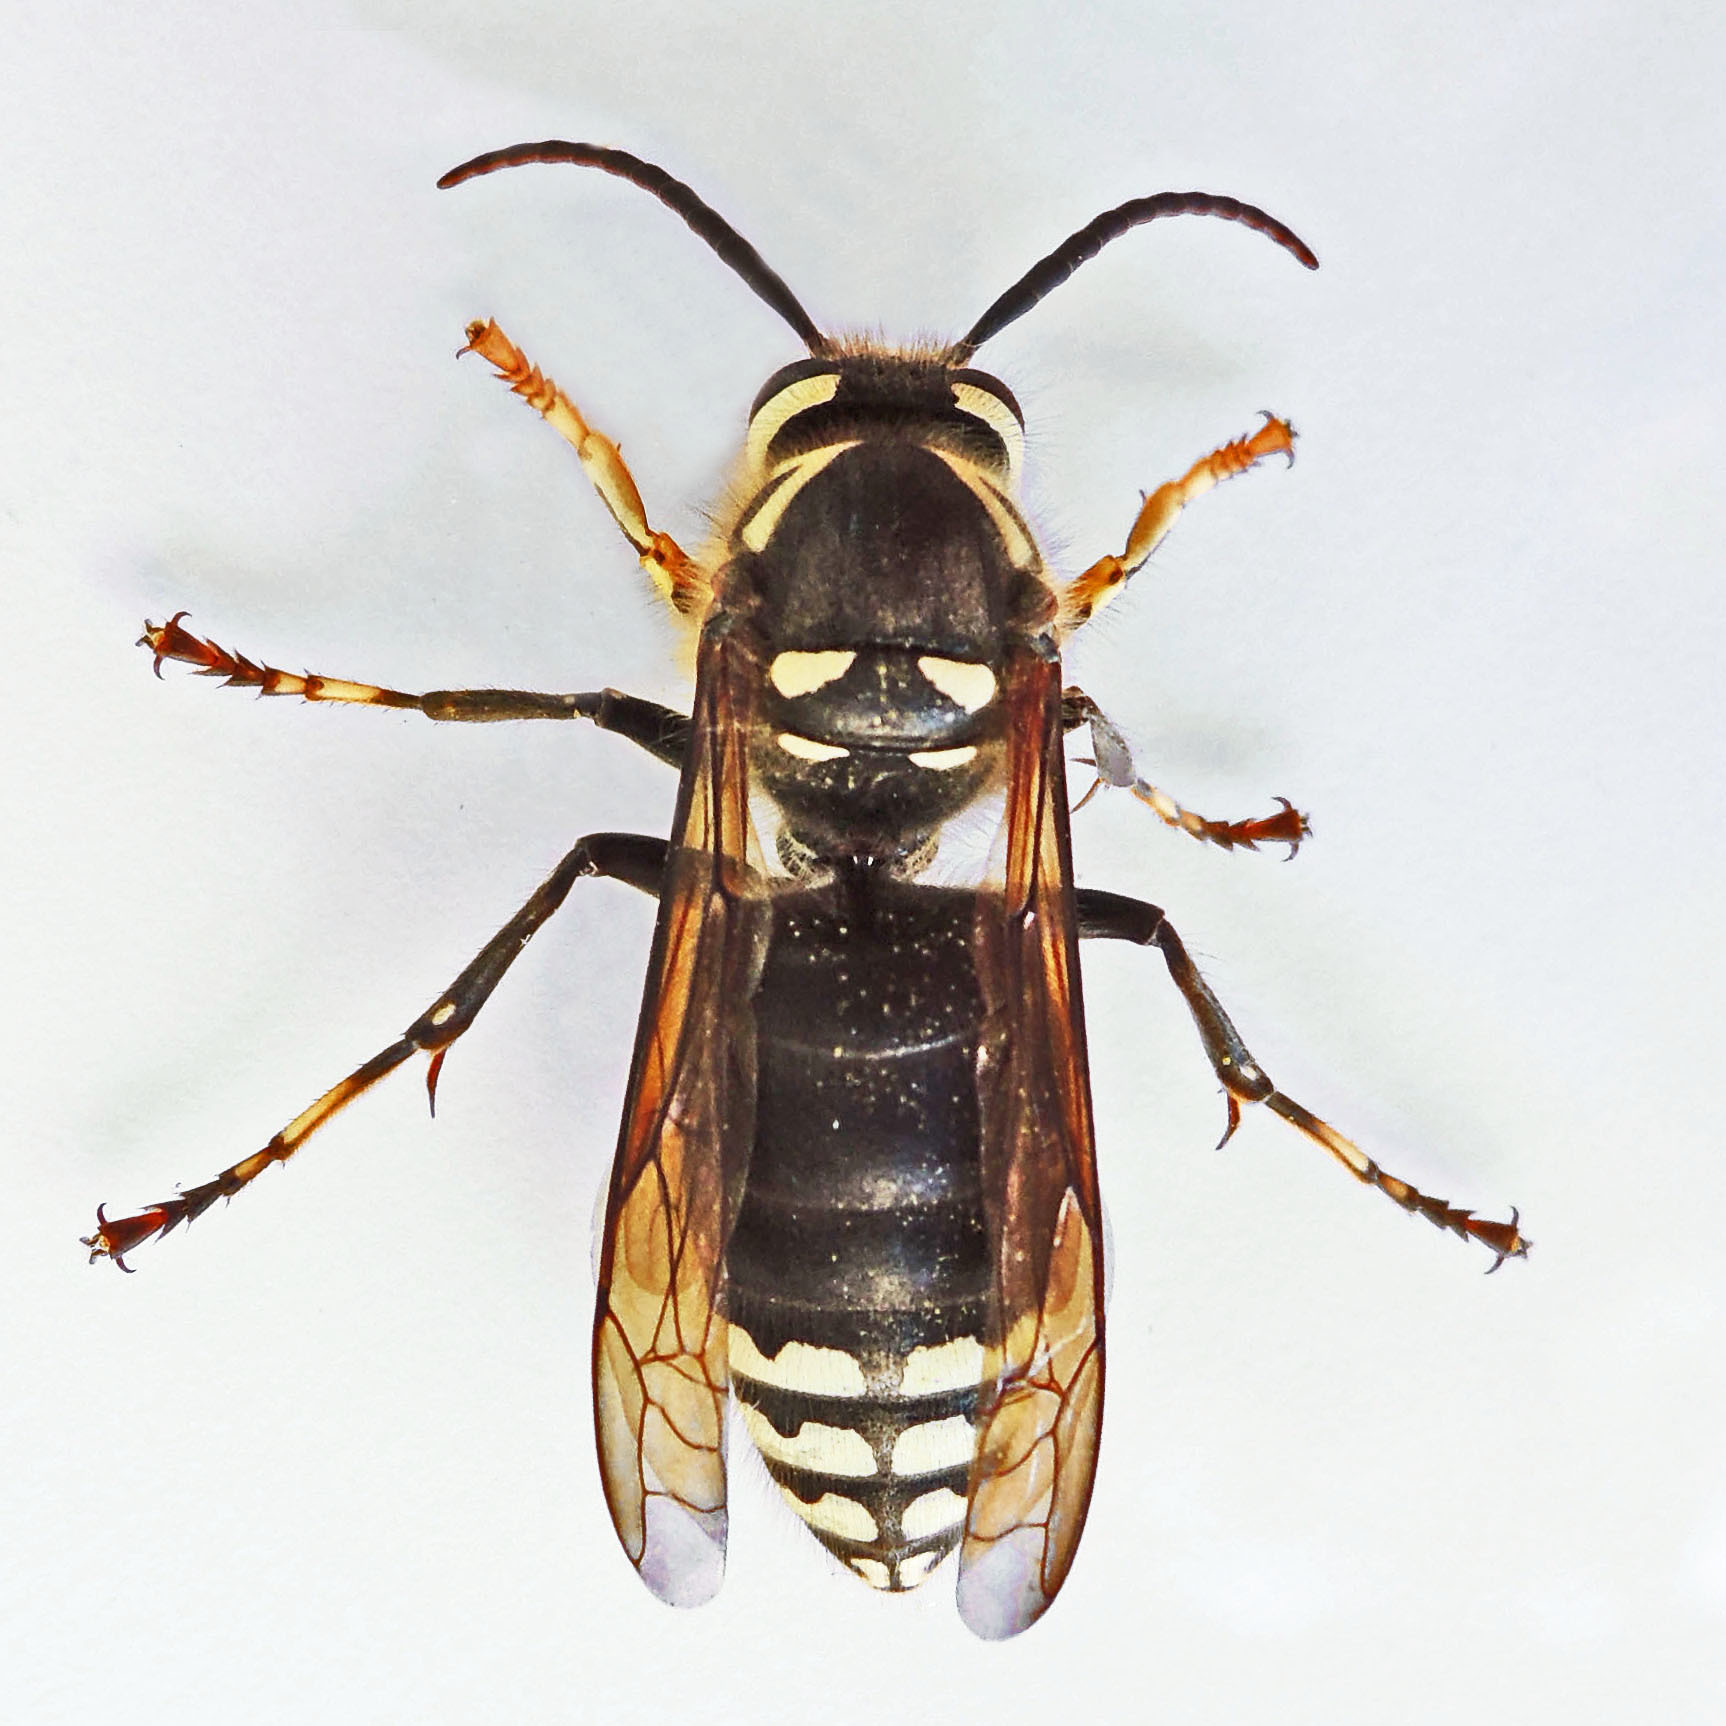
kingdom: Animalia
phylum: Arthropoda
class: Insecta
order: Hymenoptera
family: Vespidae
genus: Dolichovespula
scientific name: Dolichovespula maculata
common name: Bald-faced hornet
